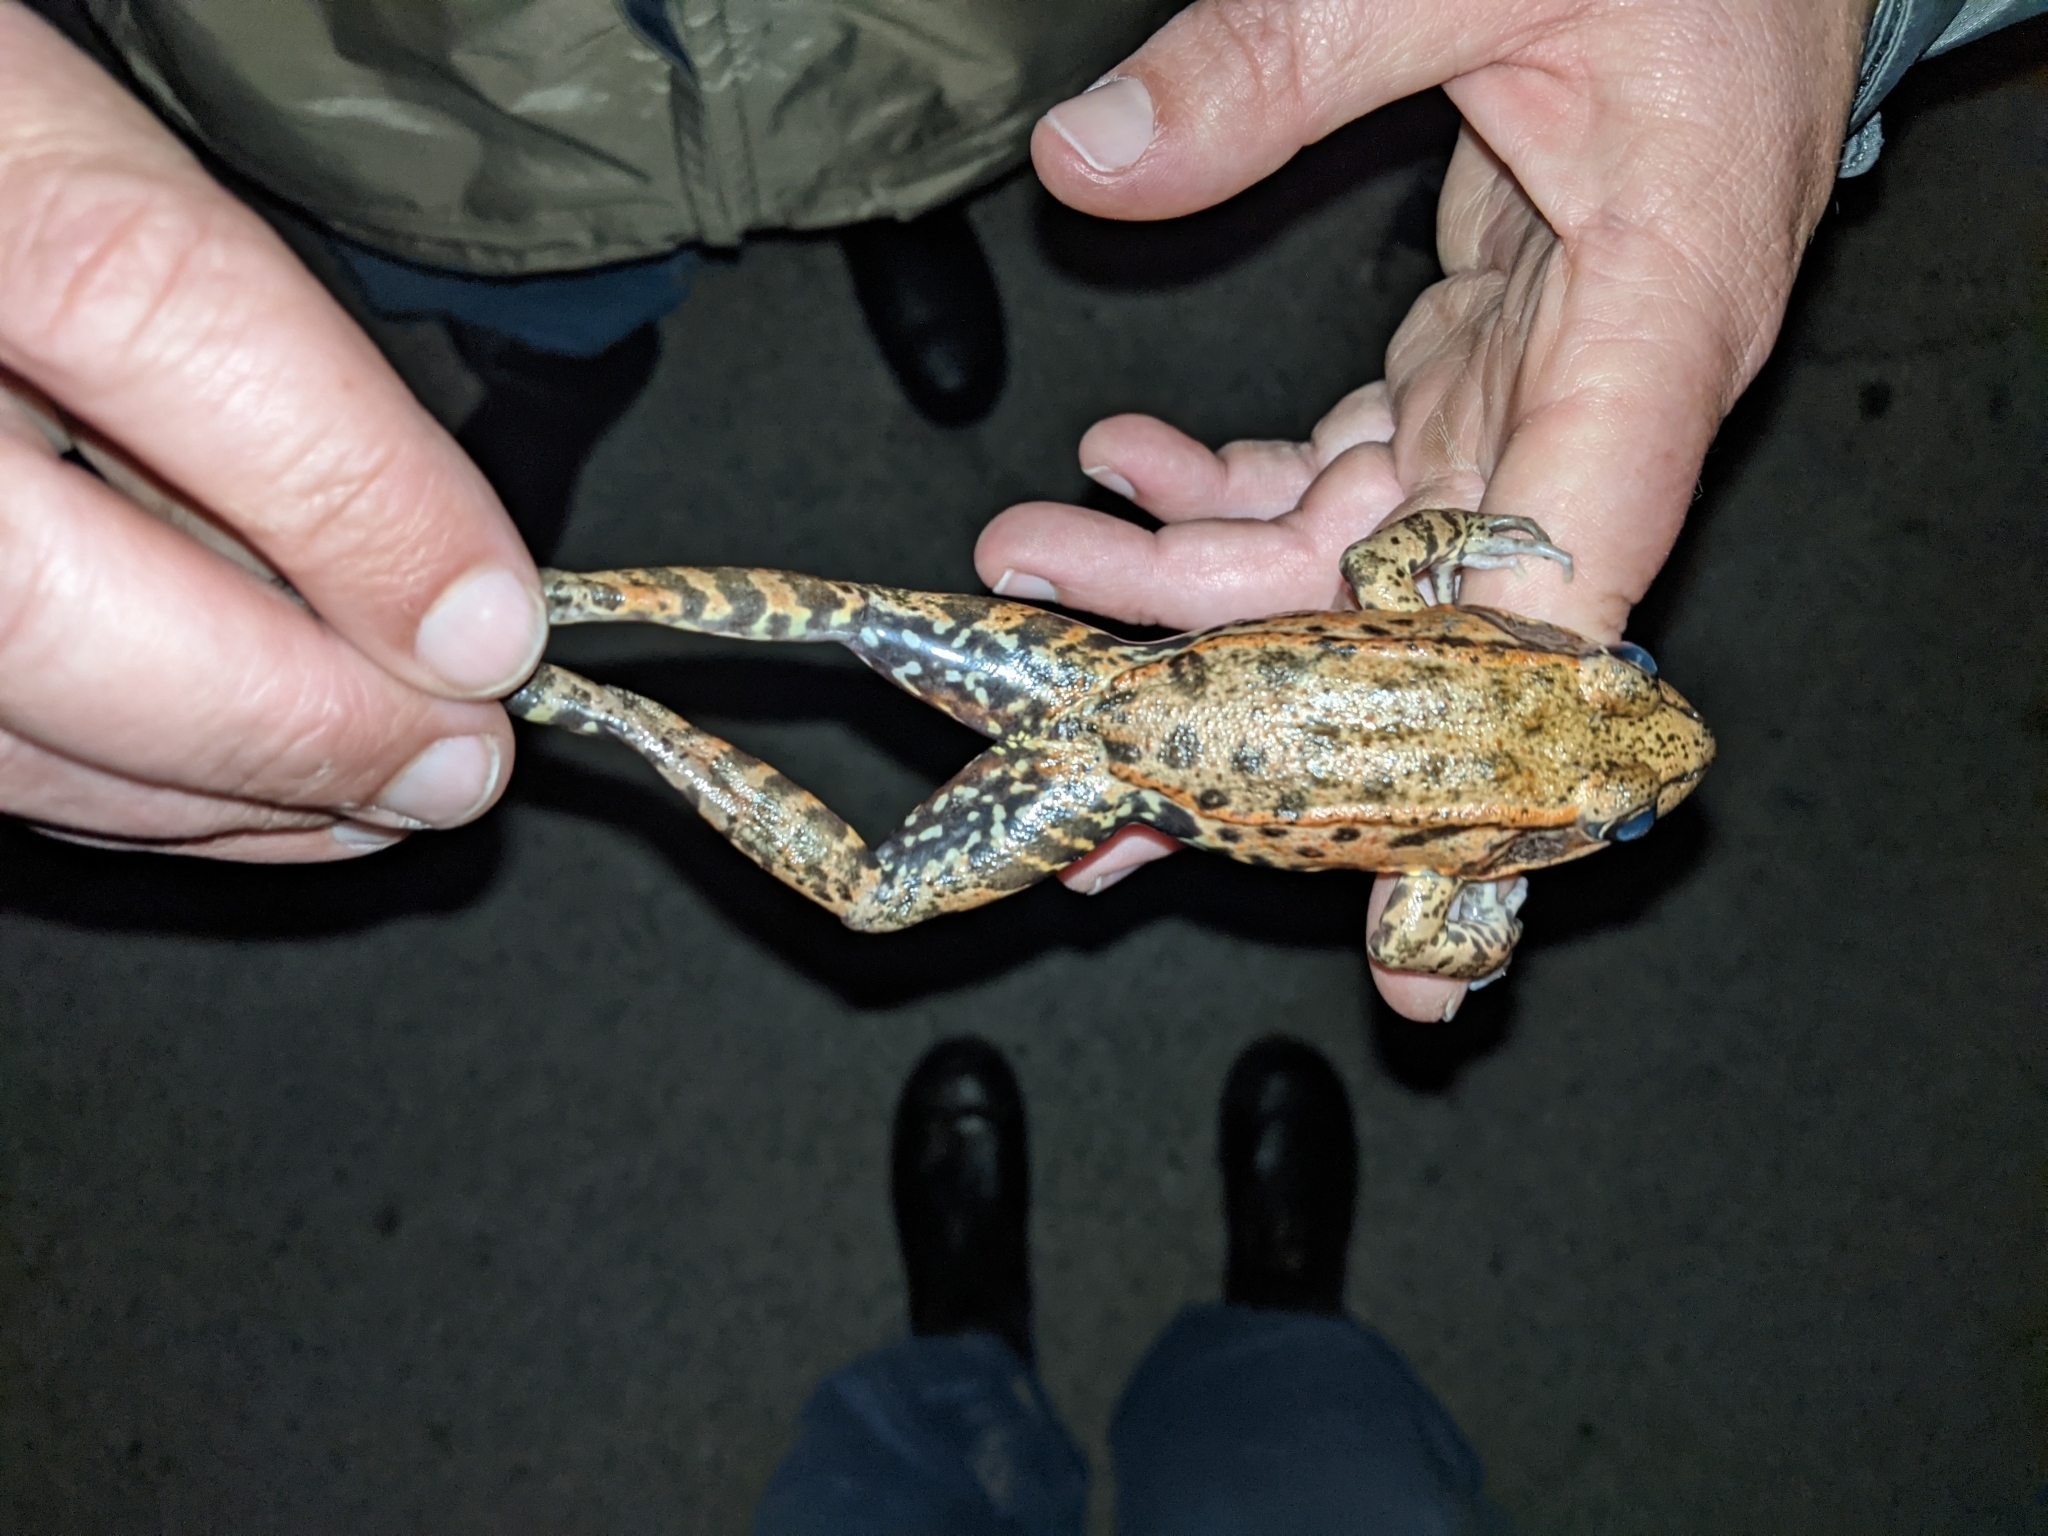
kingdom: Animalia
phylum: Chordata
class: Amphibia
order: Anura
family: Ranidae
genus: Rana
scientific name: Rana draytonii
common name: California red-legged frog
